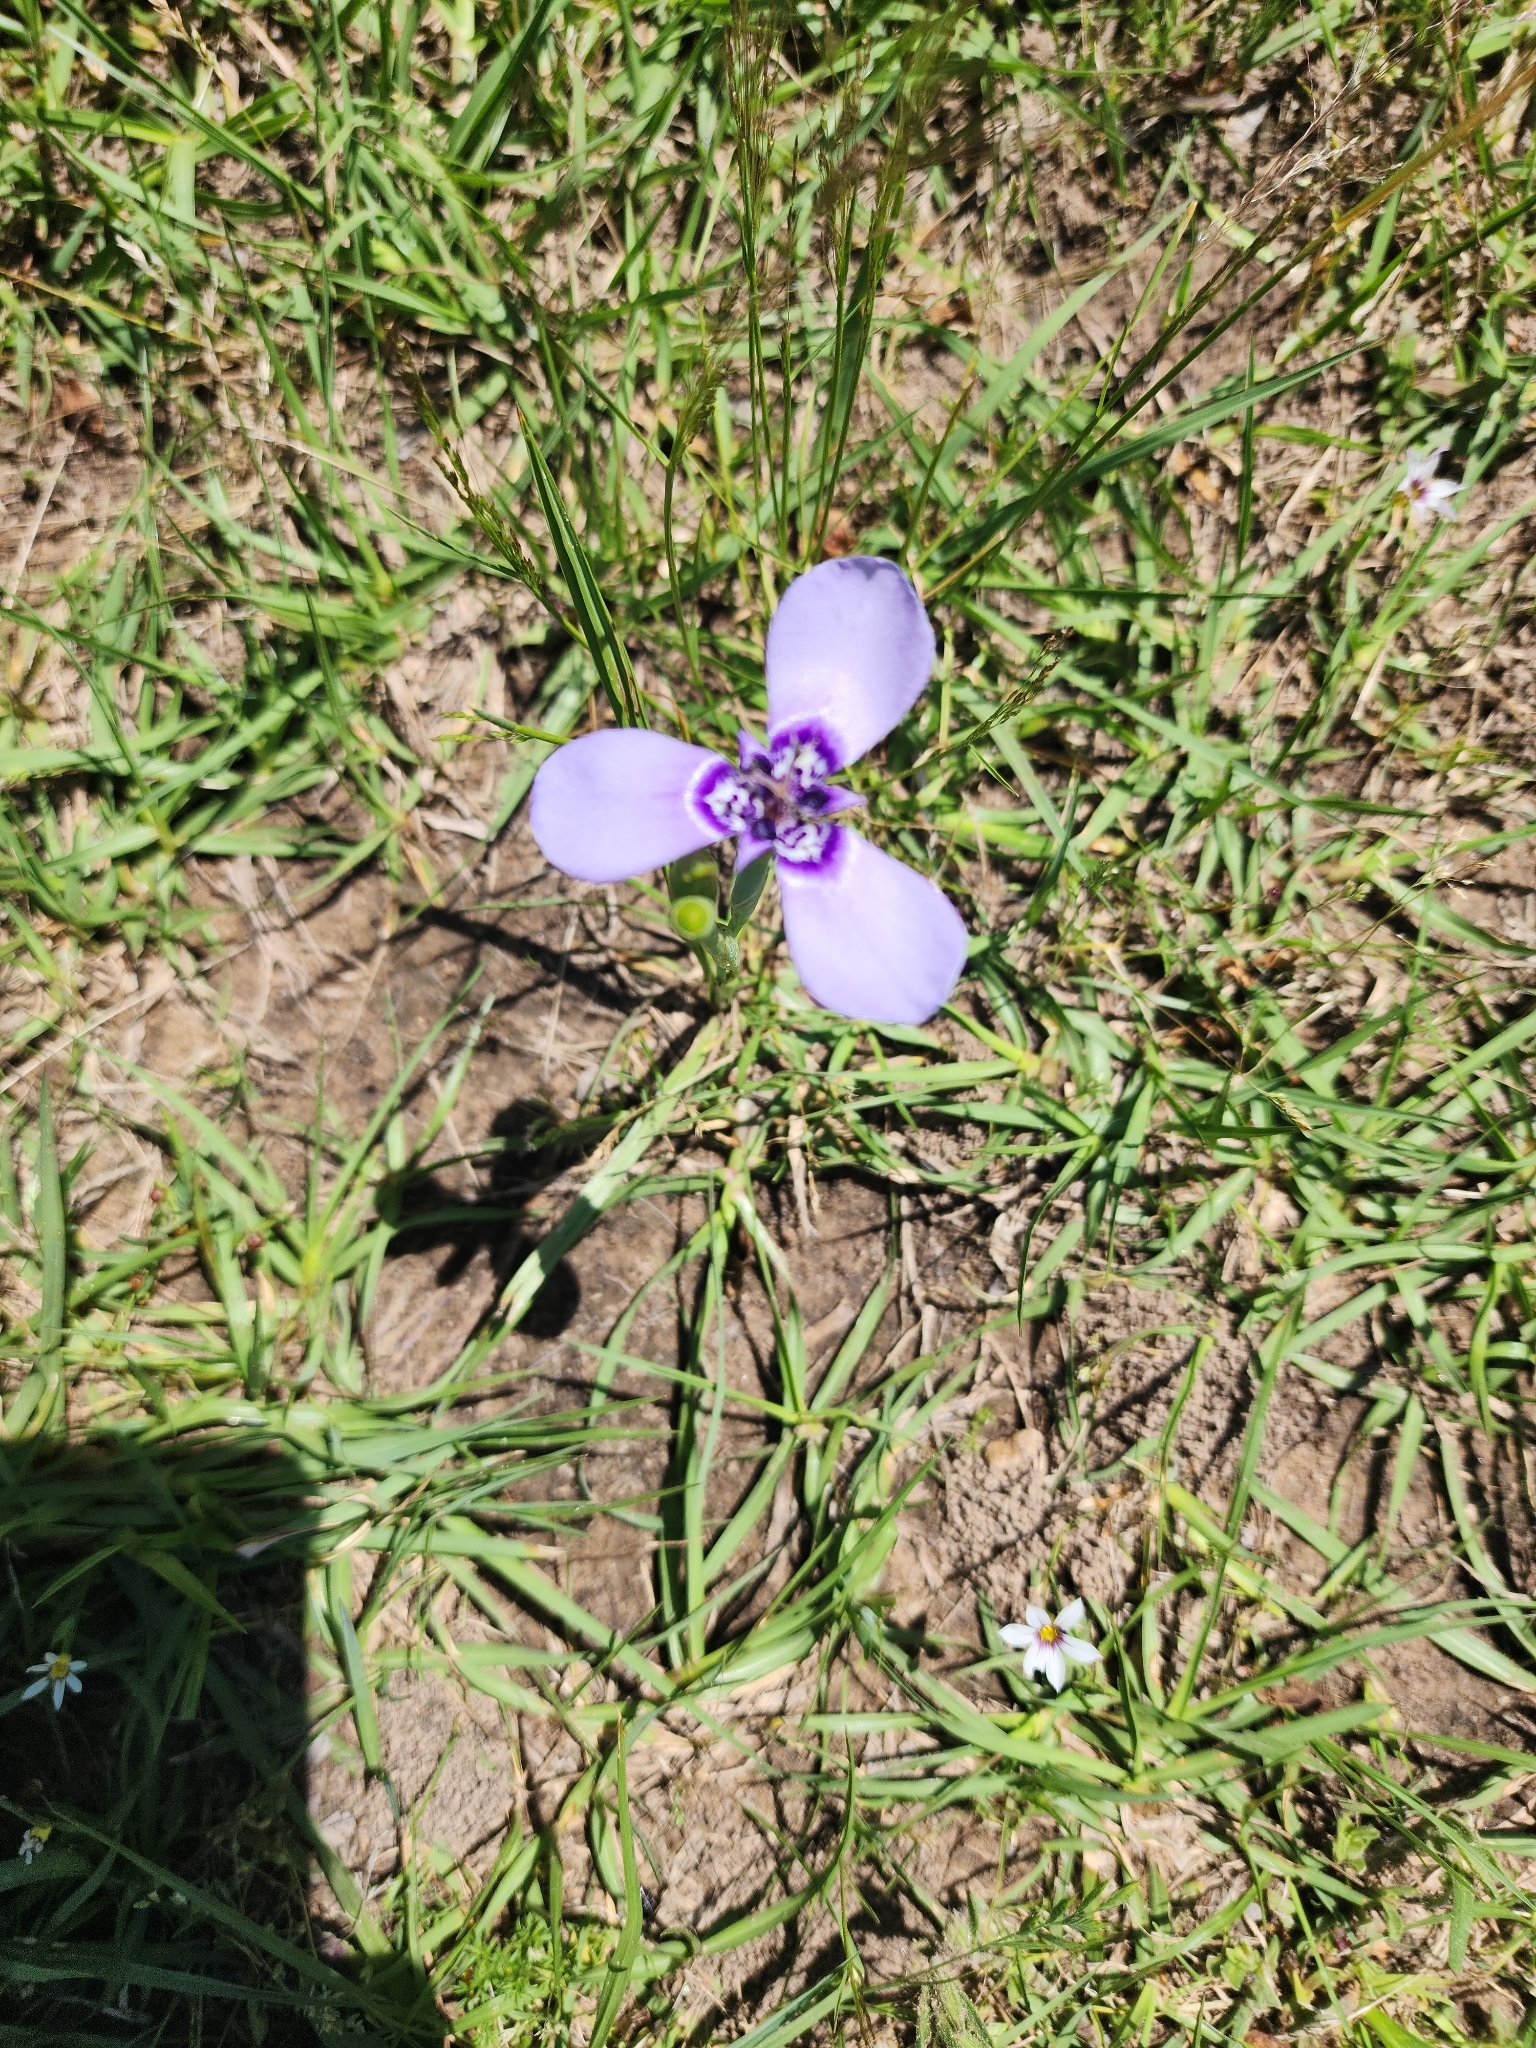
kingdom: Plantae
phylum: Tracheophyta
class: Liliopsida
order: Asparagales
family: Iridaceae
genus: Herbertia
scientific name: Herbertia lahue
